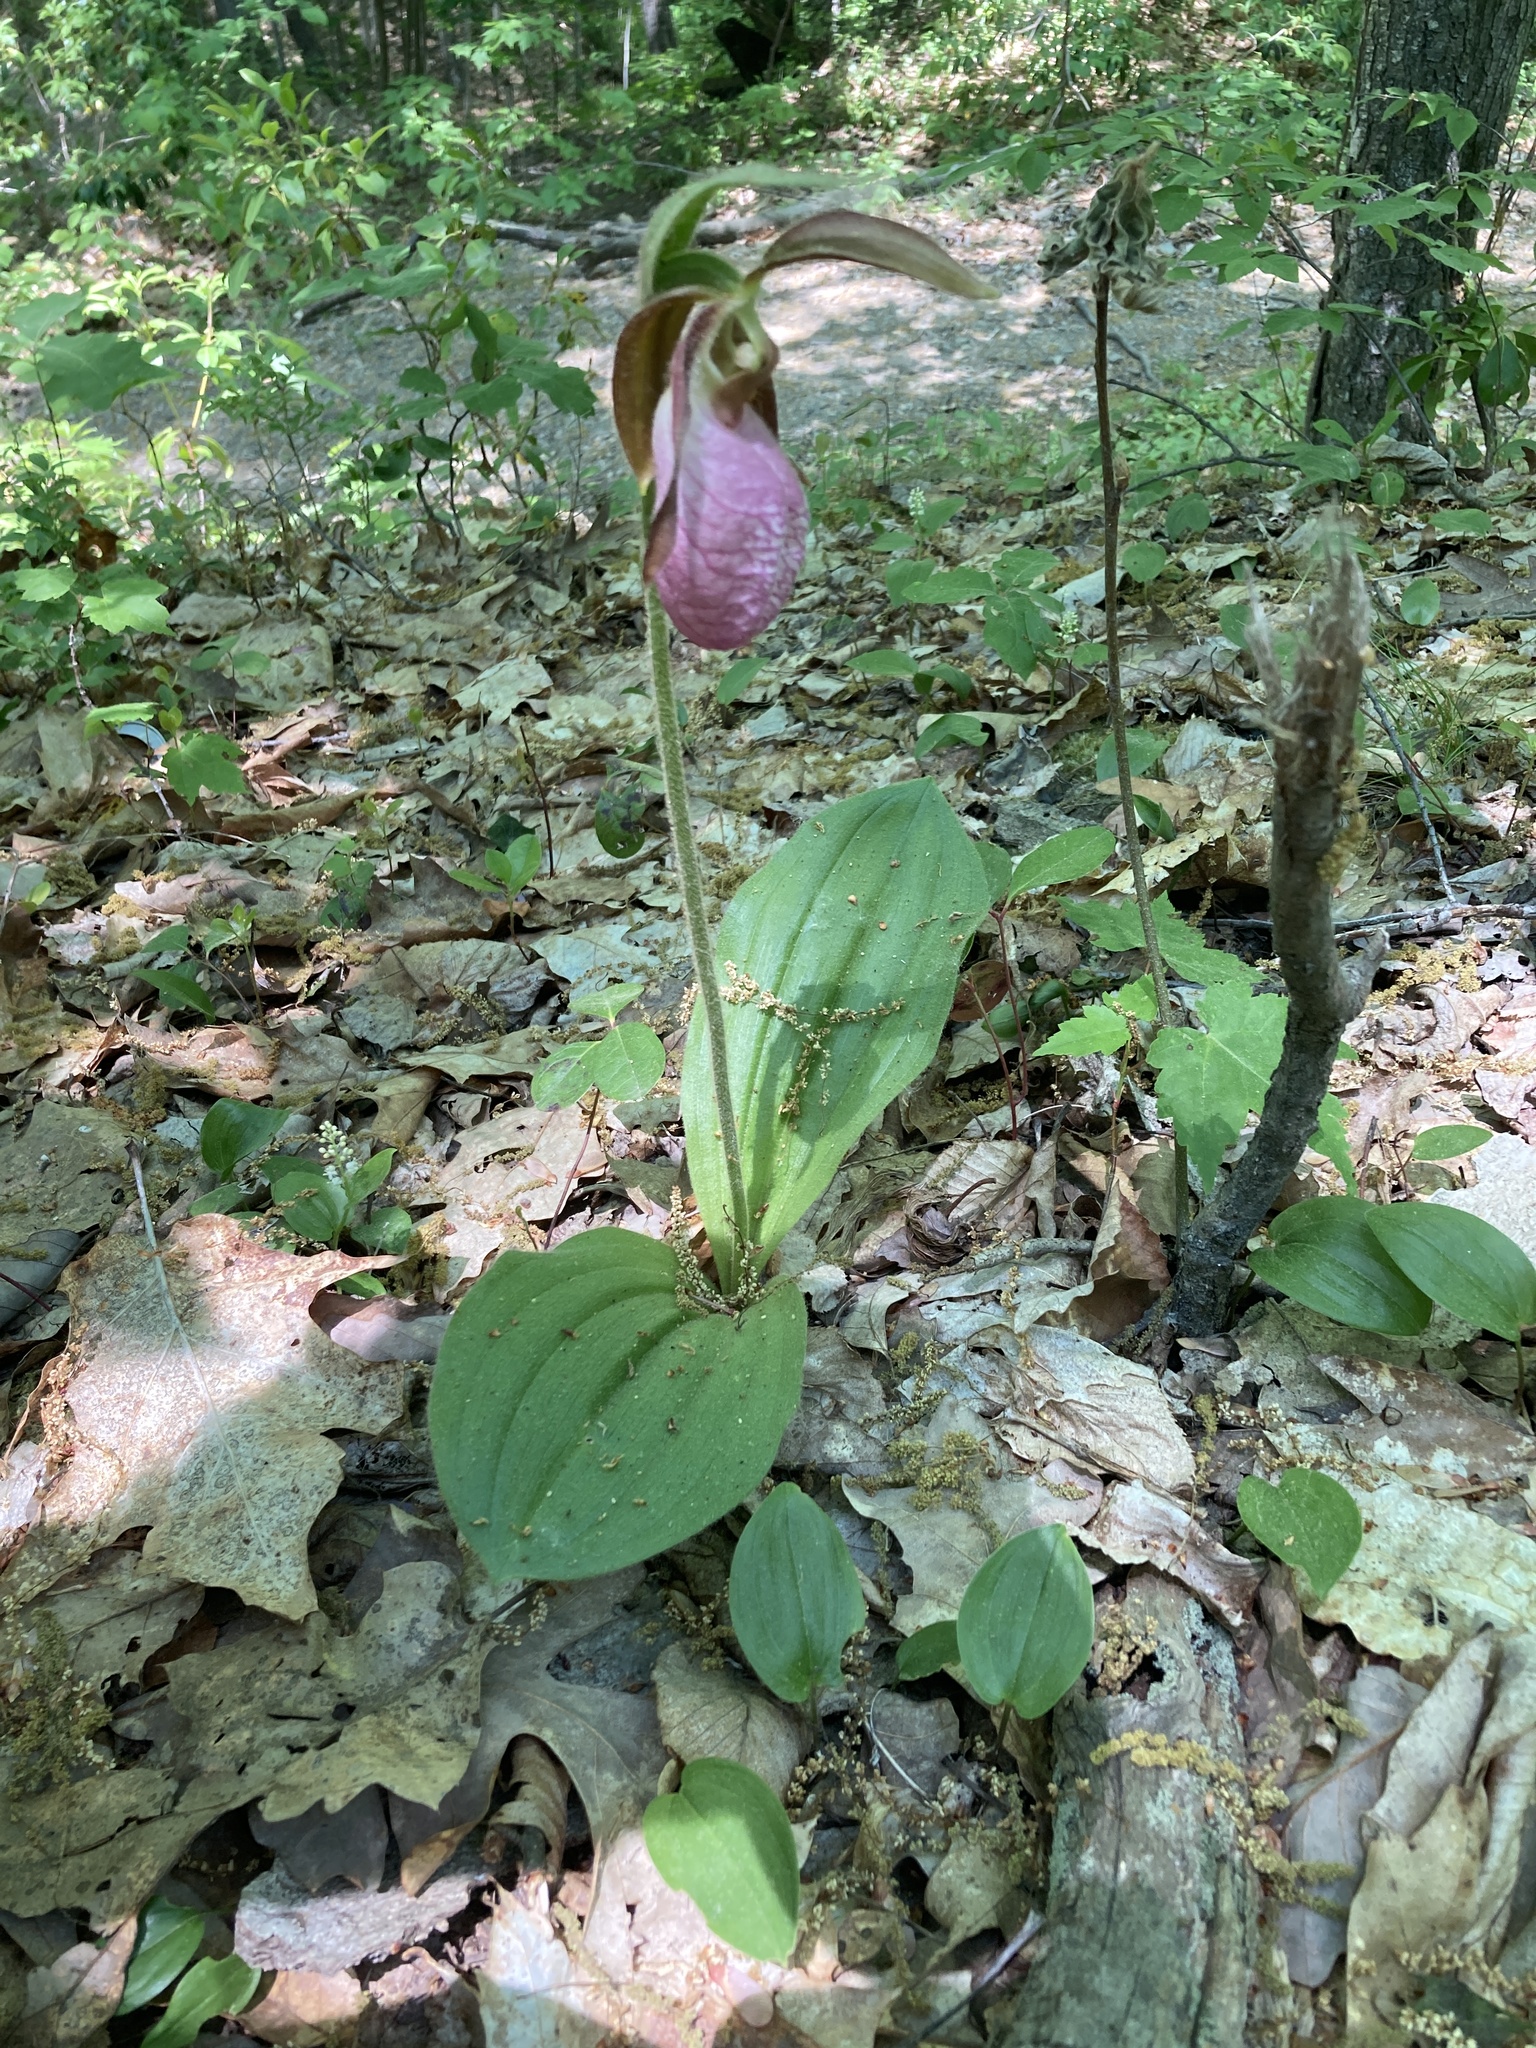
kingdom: Plantae
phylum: Tracheophyta
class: Liliopsida
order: Asparagales
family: Orchidaceae
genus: Cypripedium
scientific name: Cypripedium acaule
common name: Pink lady's-slipper
